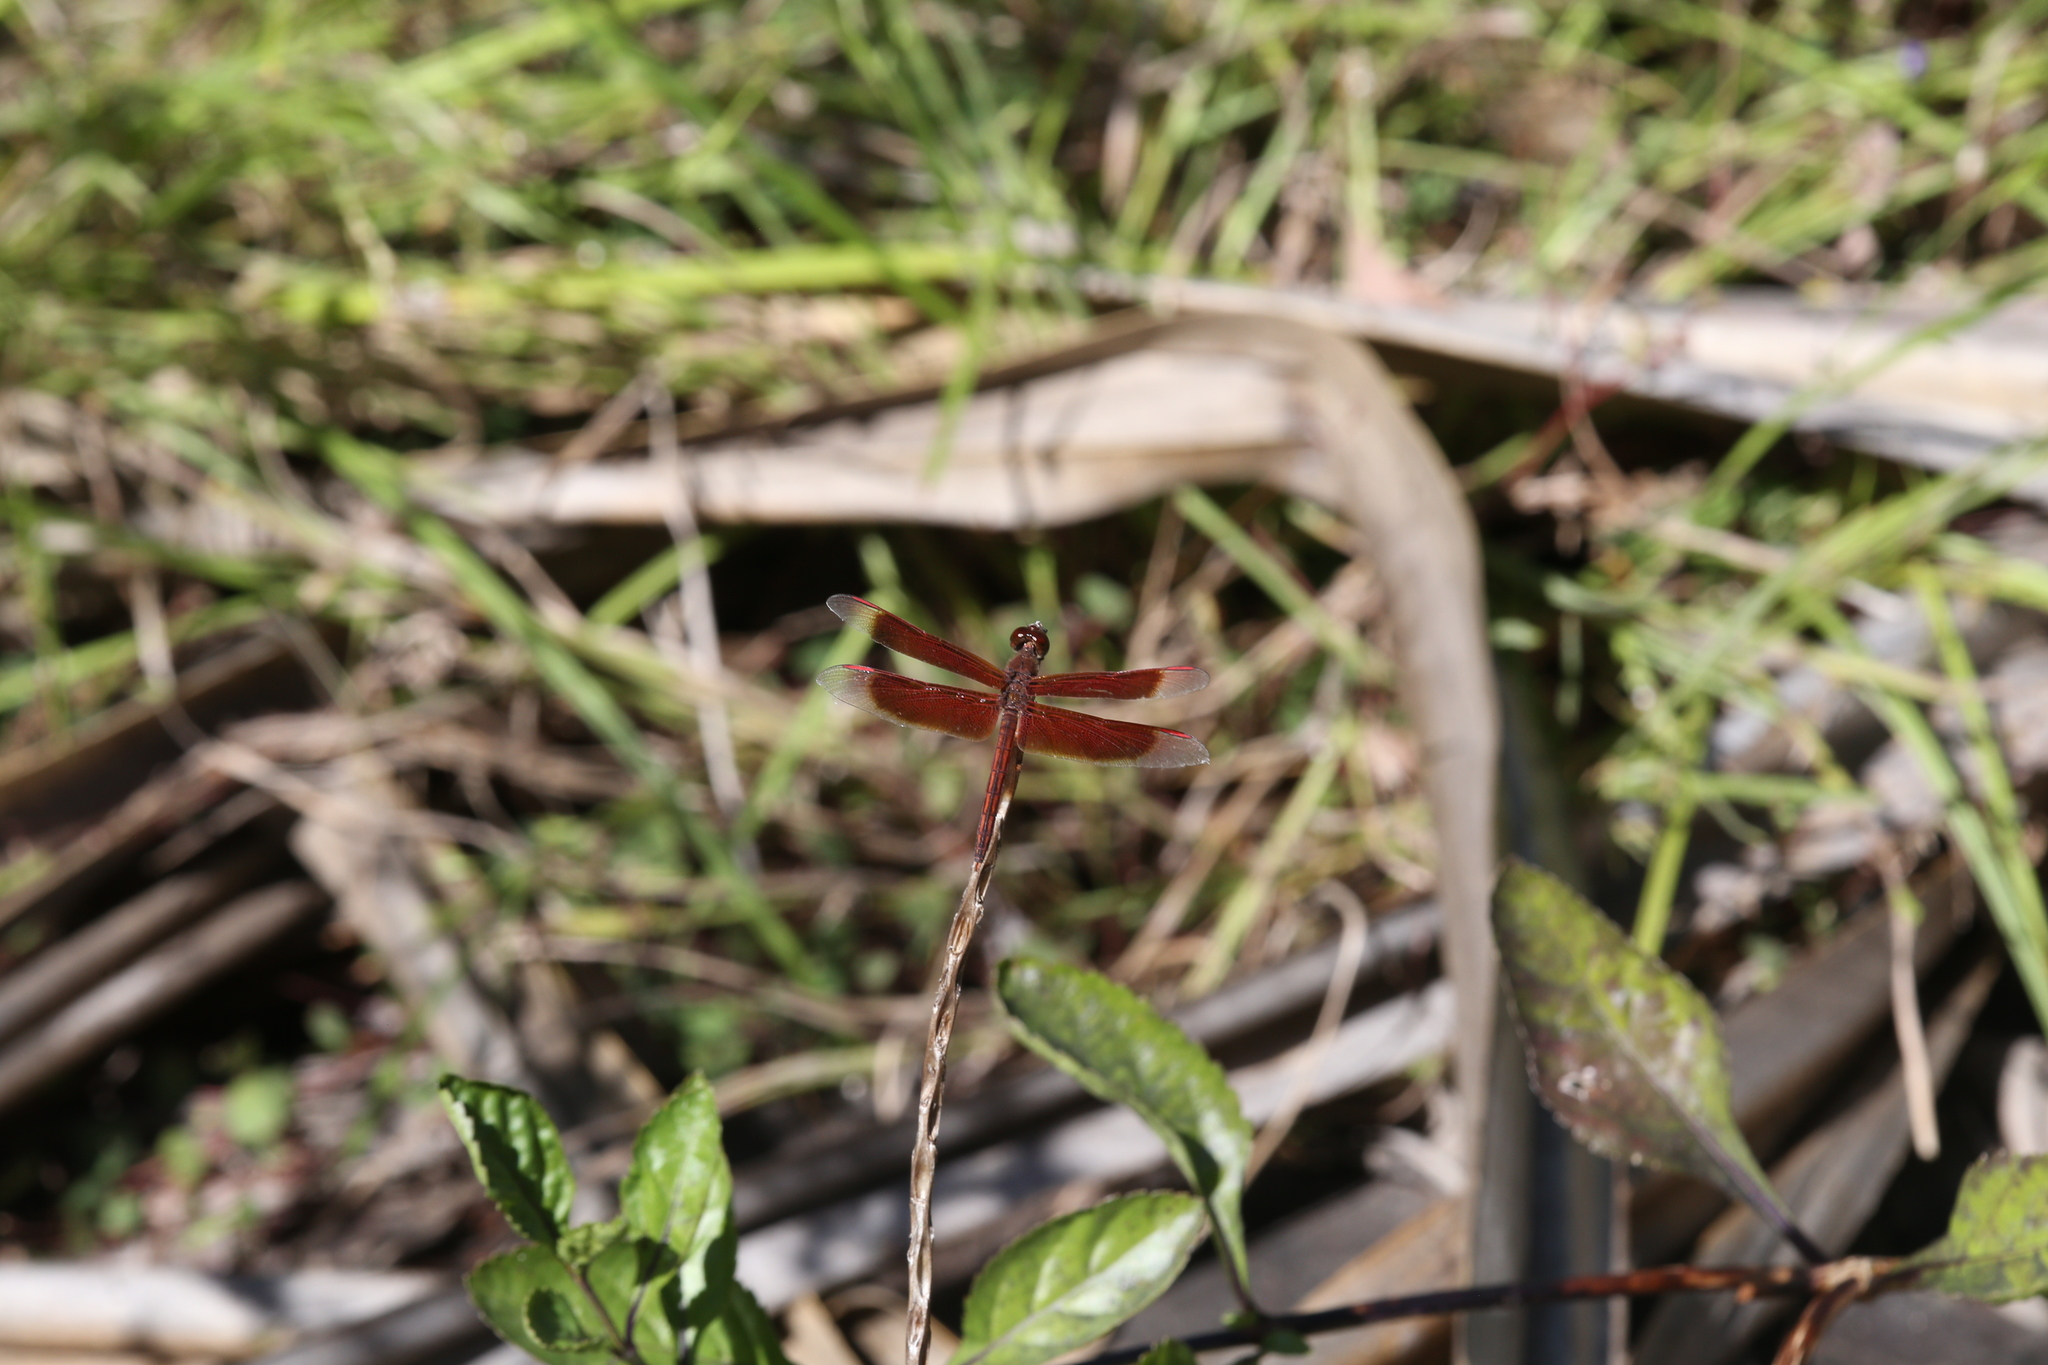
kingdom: Animalia
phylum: Arthropoda
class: Insecta
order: Odonata
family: Libellulidae
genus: Neurothemis
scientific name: Neurothemis stigmatizans
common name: Painted grasshawk
